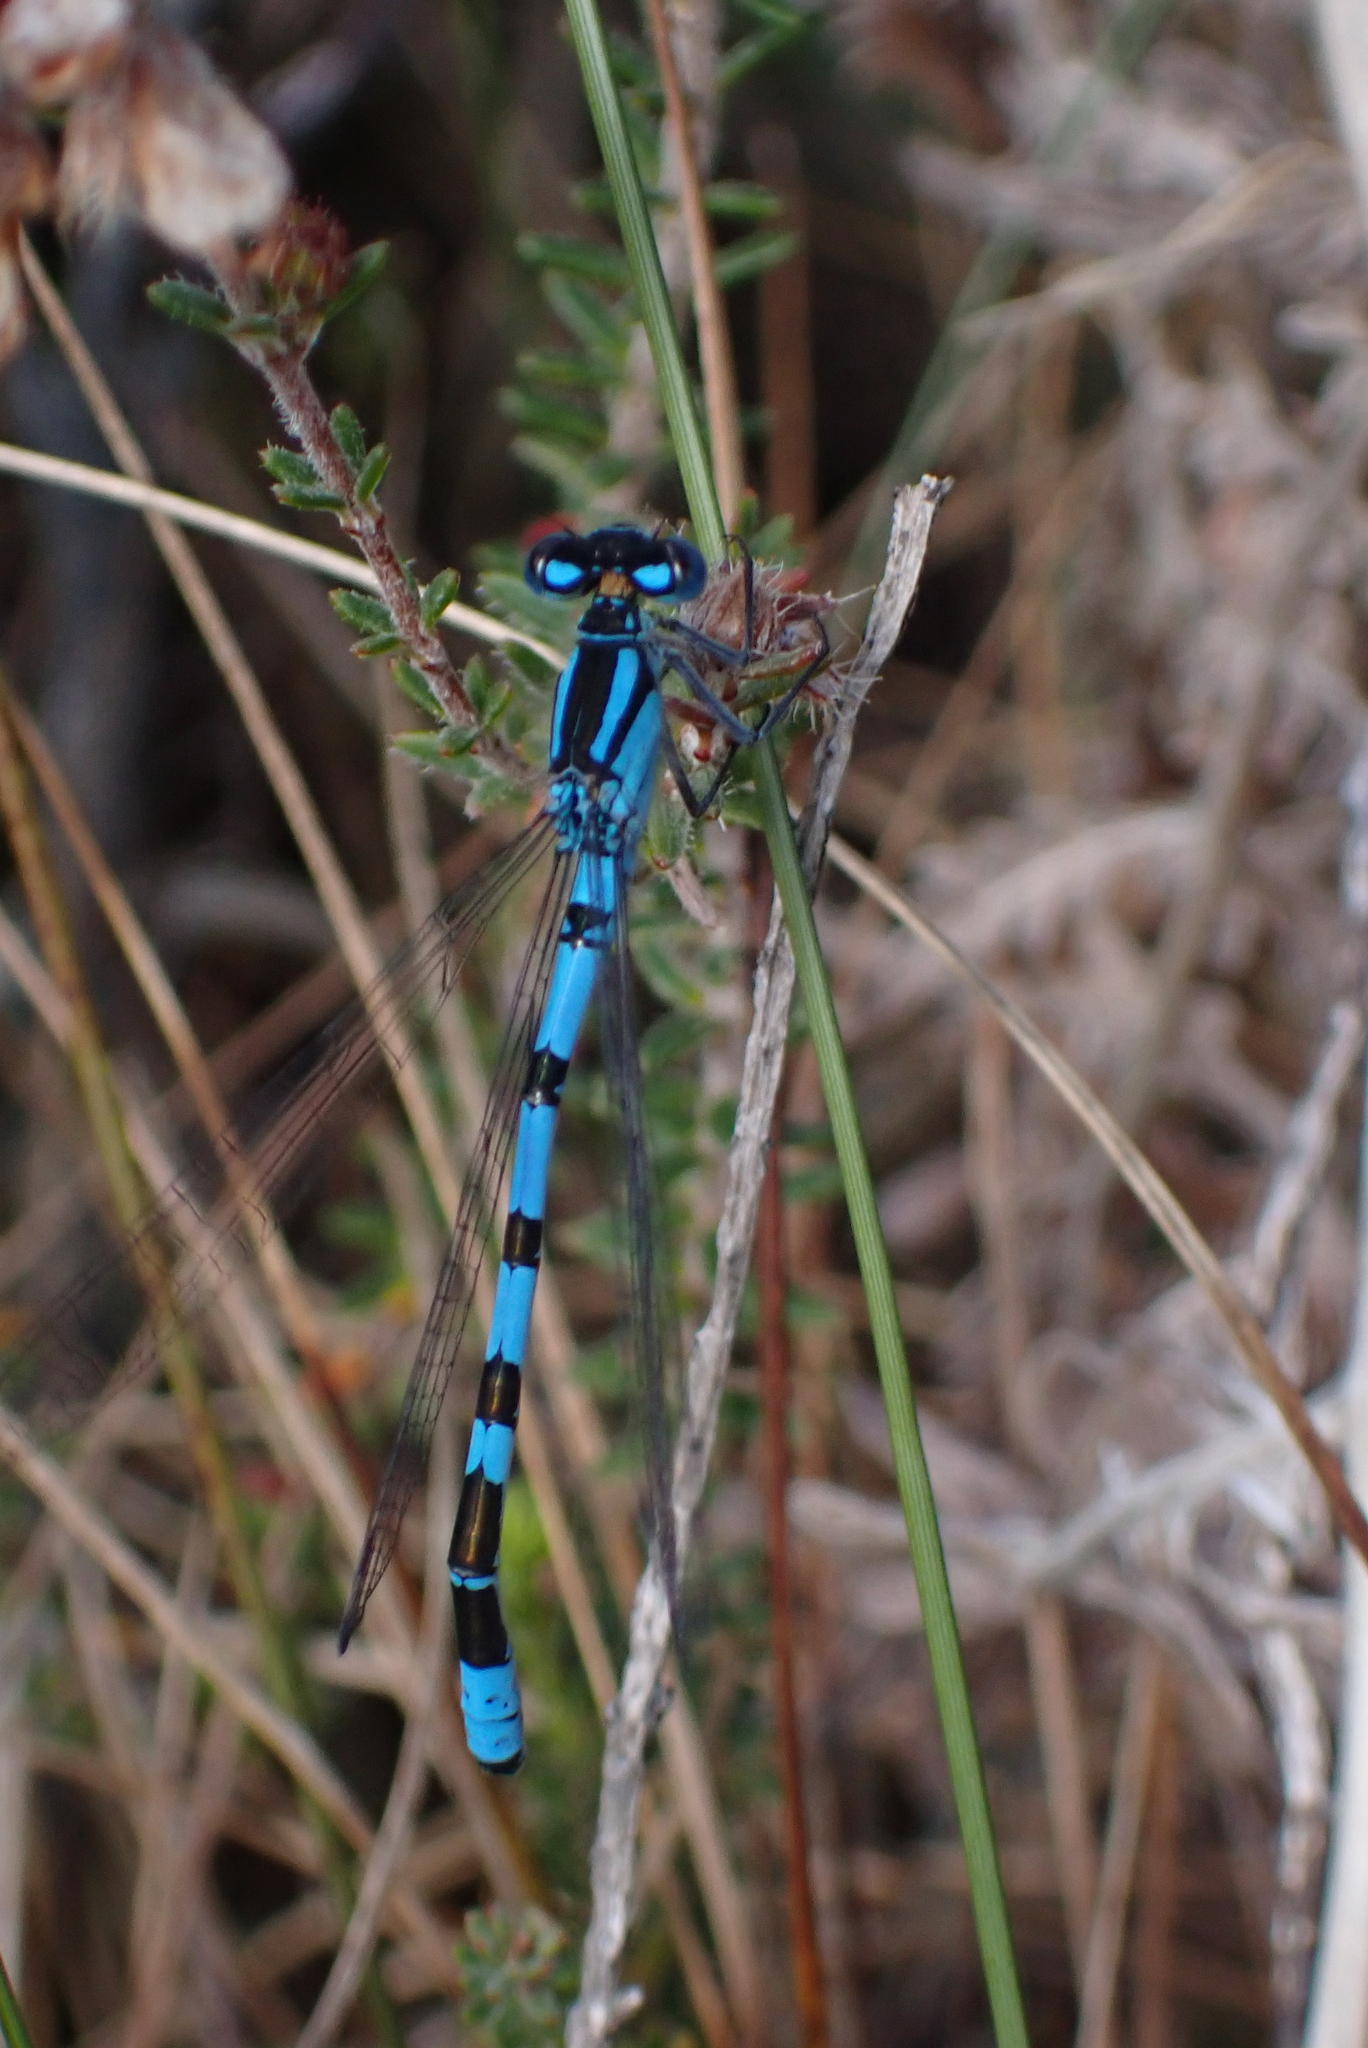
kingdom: Animalia
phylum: Arthropoda
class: Insecta
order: Odonata
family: Coenagrionidae
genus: Enallagma
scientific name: Enallagma cyathigerum
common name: Common blue damselfly
